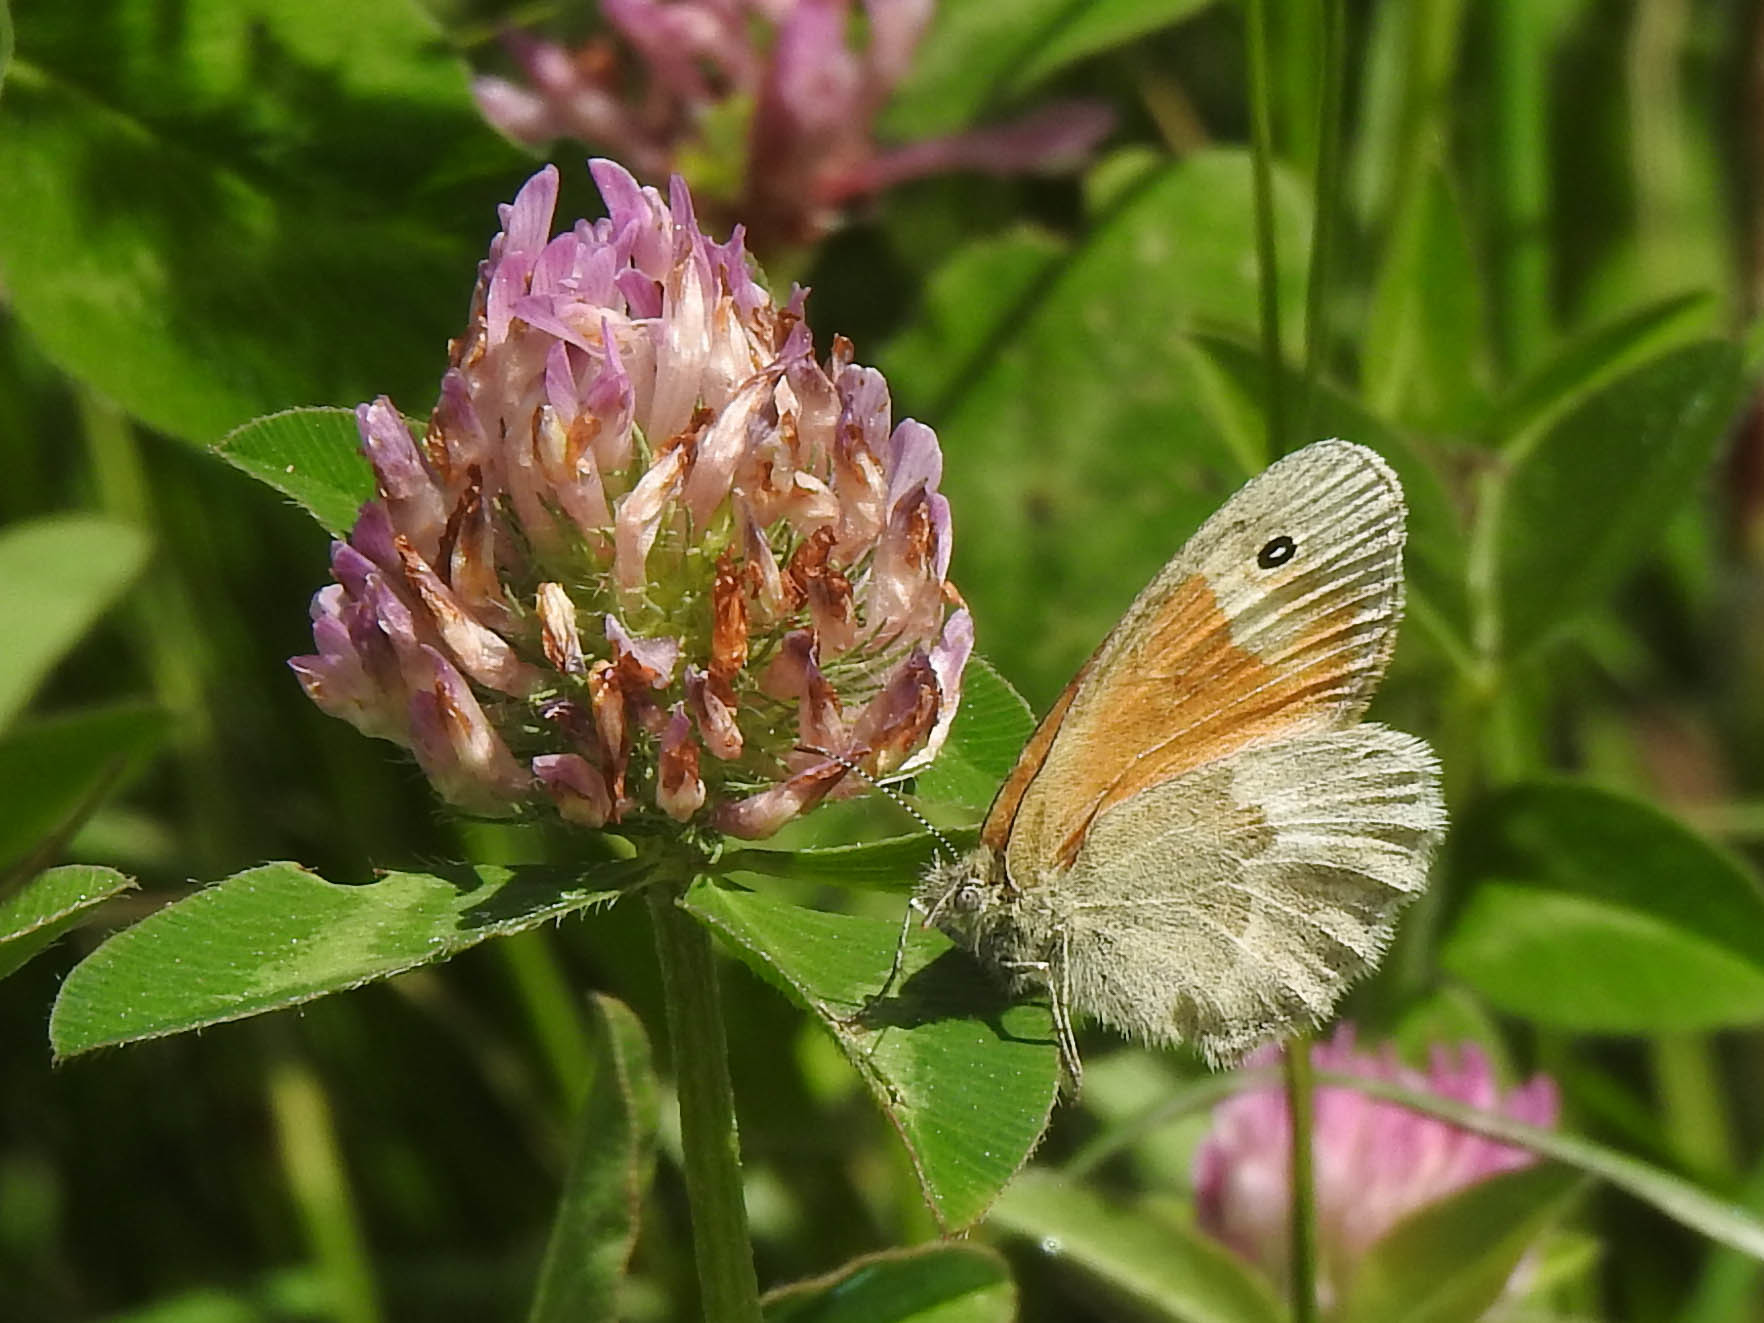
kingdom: Animalia
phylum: Arthropoda
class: Insecta
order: Lepidoptera
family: Nymphalidae
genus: Coenonympha
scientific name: Coenonympha california
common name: Common ringlet
